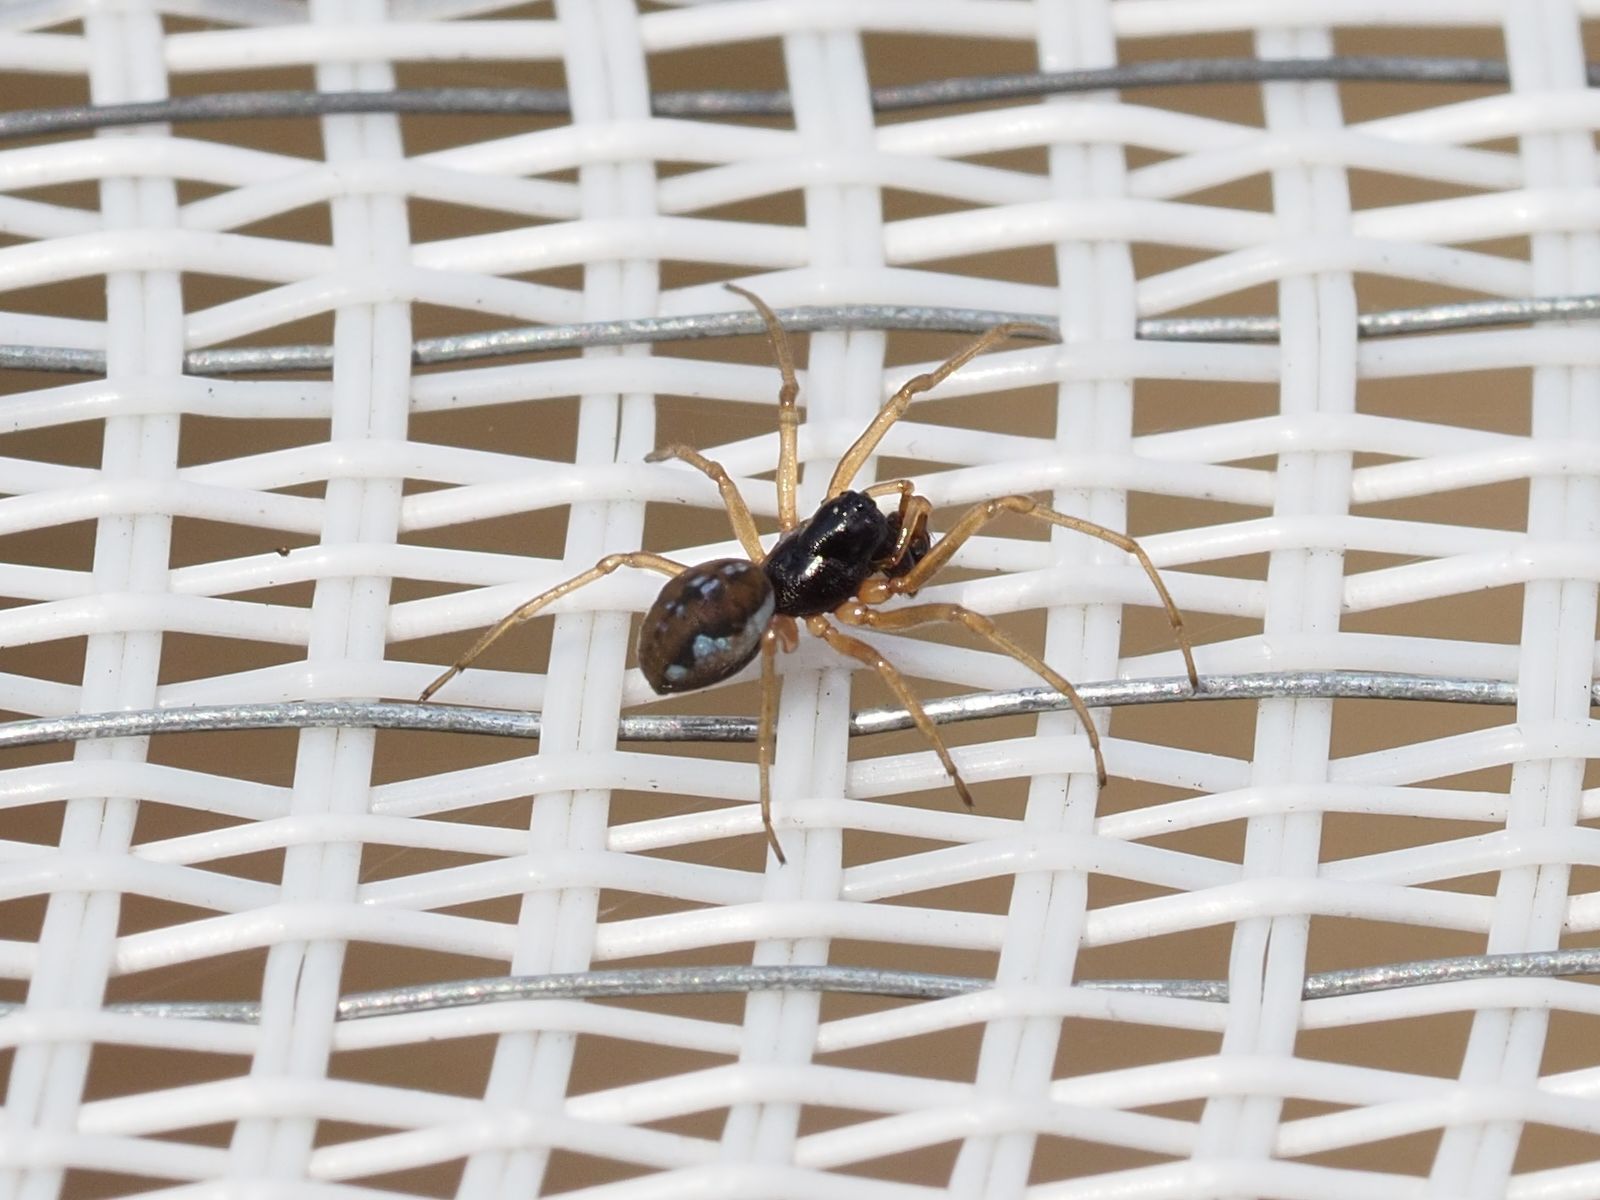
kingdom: Animalia
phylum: Arthropoda
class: Arachnida
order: Araneae
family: Tetragnathidae
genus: Pachygnatha
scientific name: Pachygnatha degeeri
